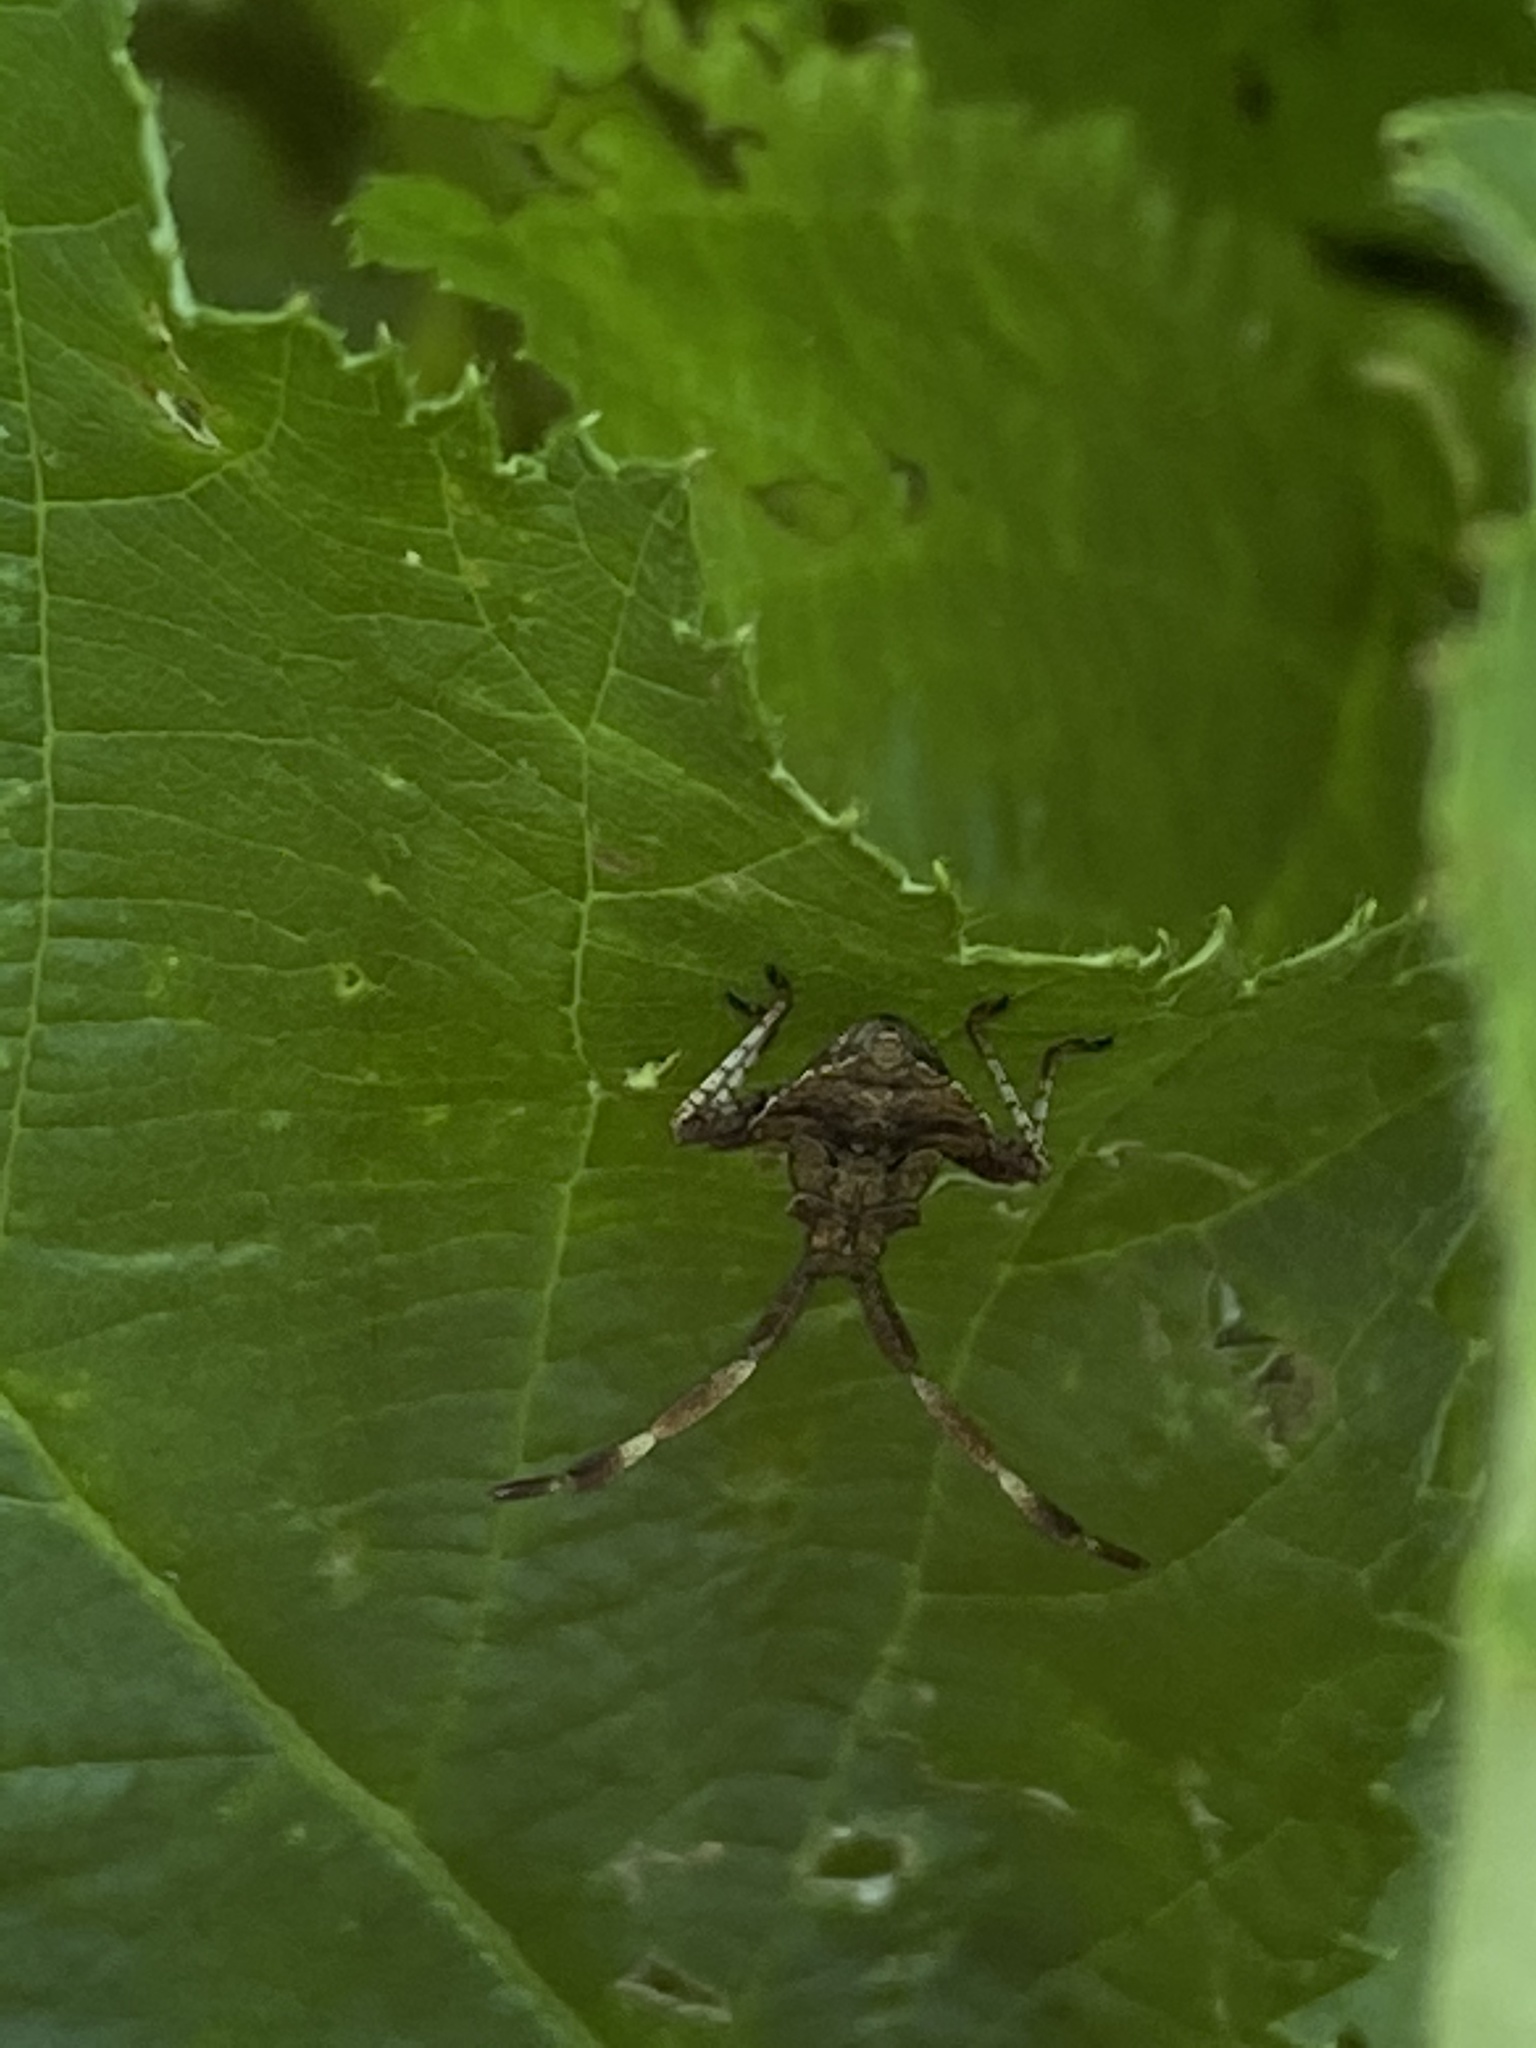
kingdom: Animalia
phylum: Arthropoda
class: Insecta
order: Hemiptera
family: Coreidae
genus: Coreus
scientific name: Coreus marginatus
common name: Dock bug
